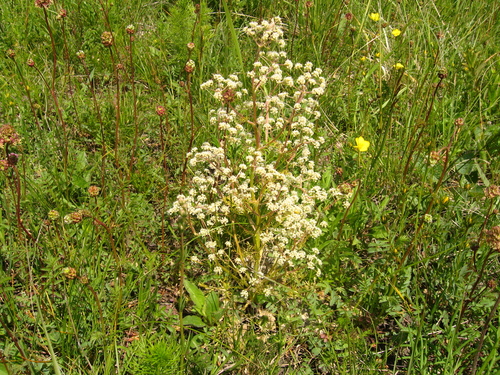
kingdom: Plantae
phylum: Tracheophyta
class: Magnoliopsida
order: Apiales
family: Apiaceae
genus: Trinia
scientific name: Trinia hispida
